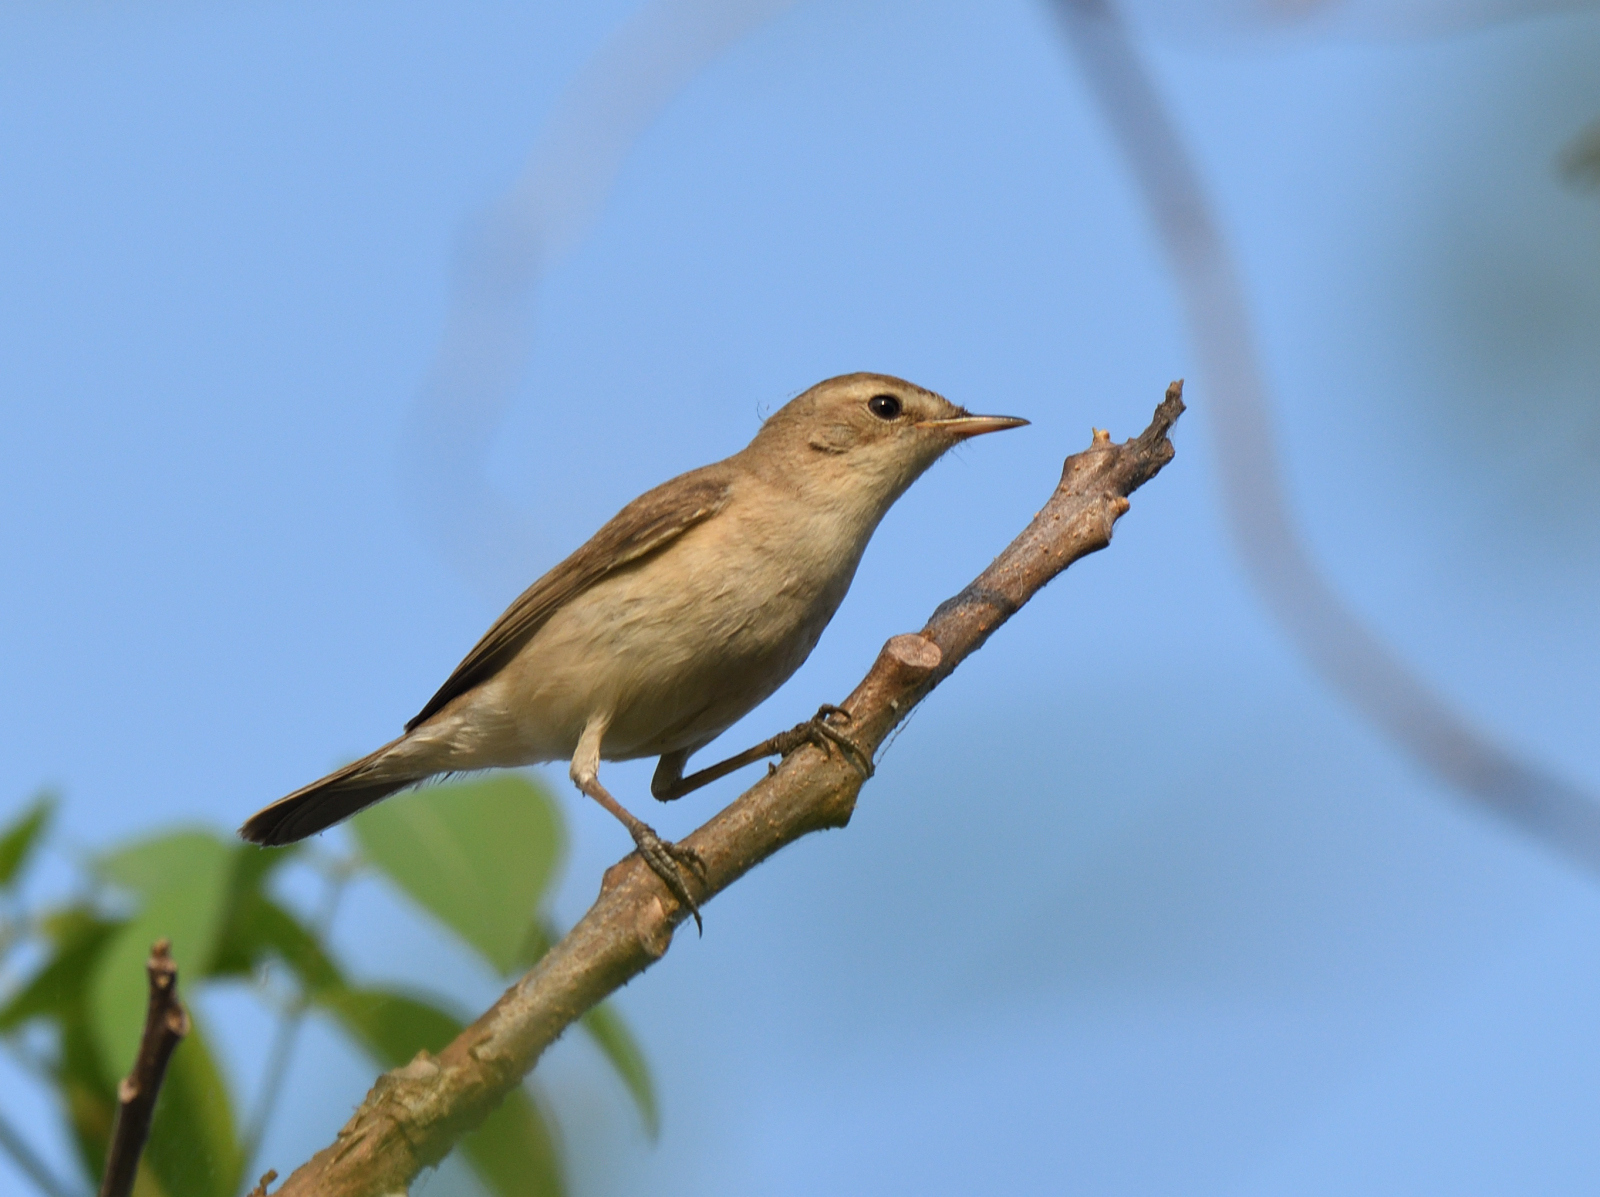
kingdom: Animalia
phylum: Chordata
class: Aves
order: Passeriformes
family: Acrocephalidae
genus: Iduna
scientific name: Iduna caligata
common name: Booted warbler
